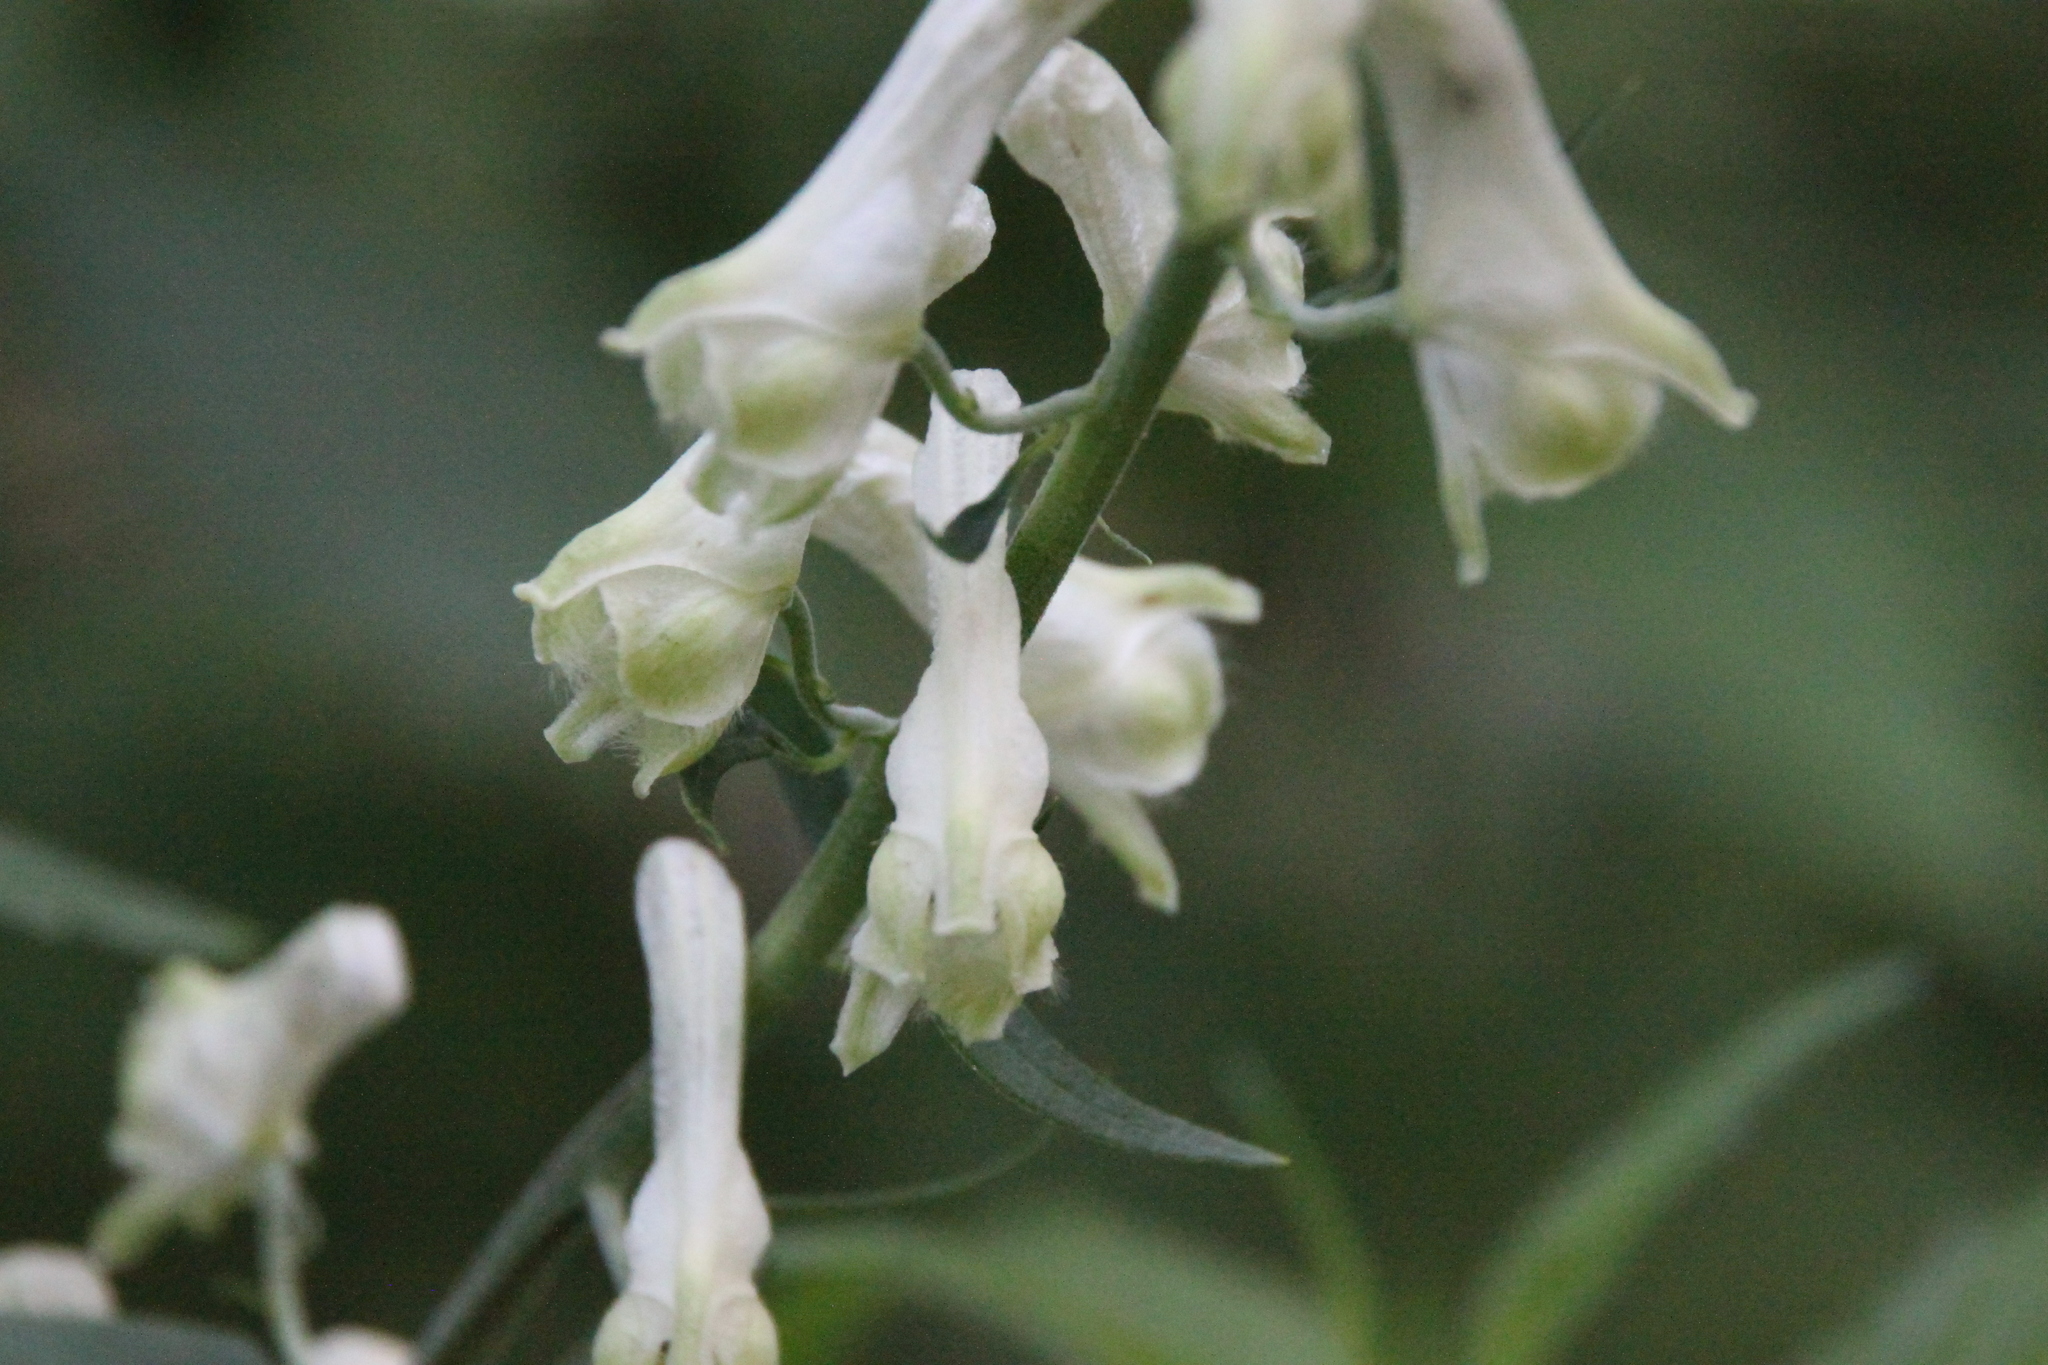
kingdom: Plantae
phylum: Tracheophyta
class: Magnoliopsida
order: Ranunculales
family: Ranunculaceae
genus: Aconitum
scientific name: Aconitum lasiostomum
